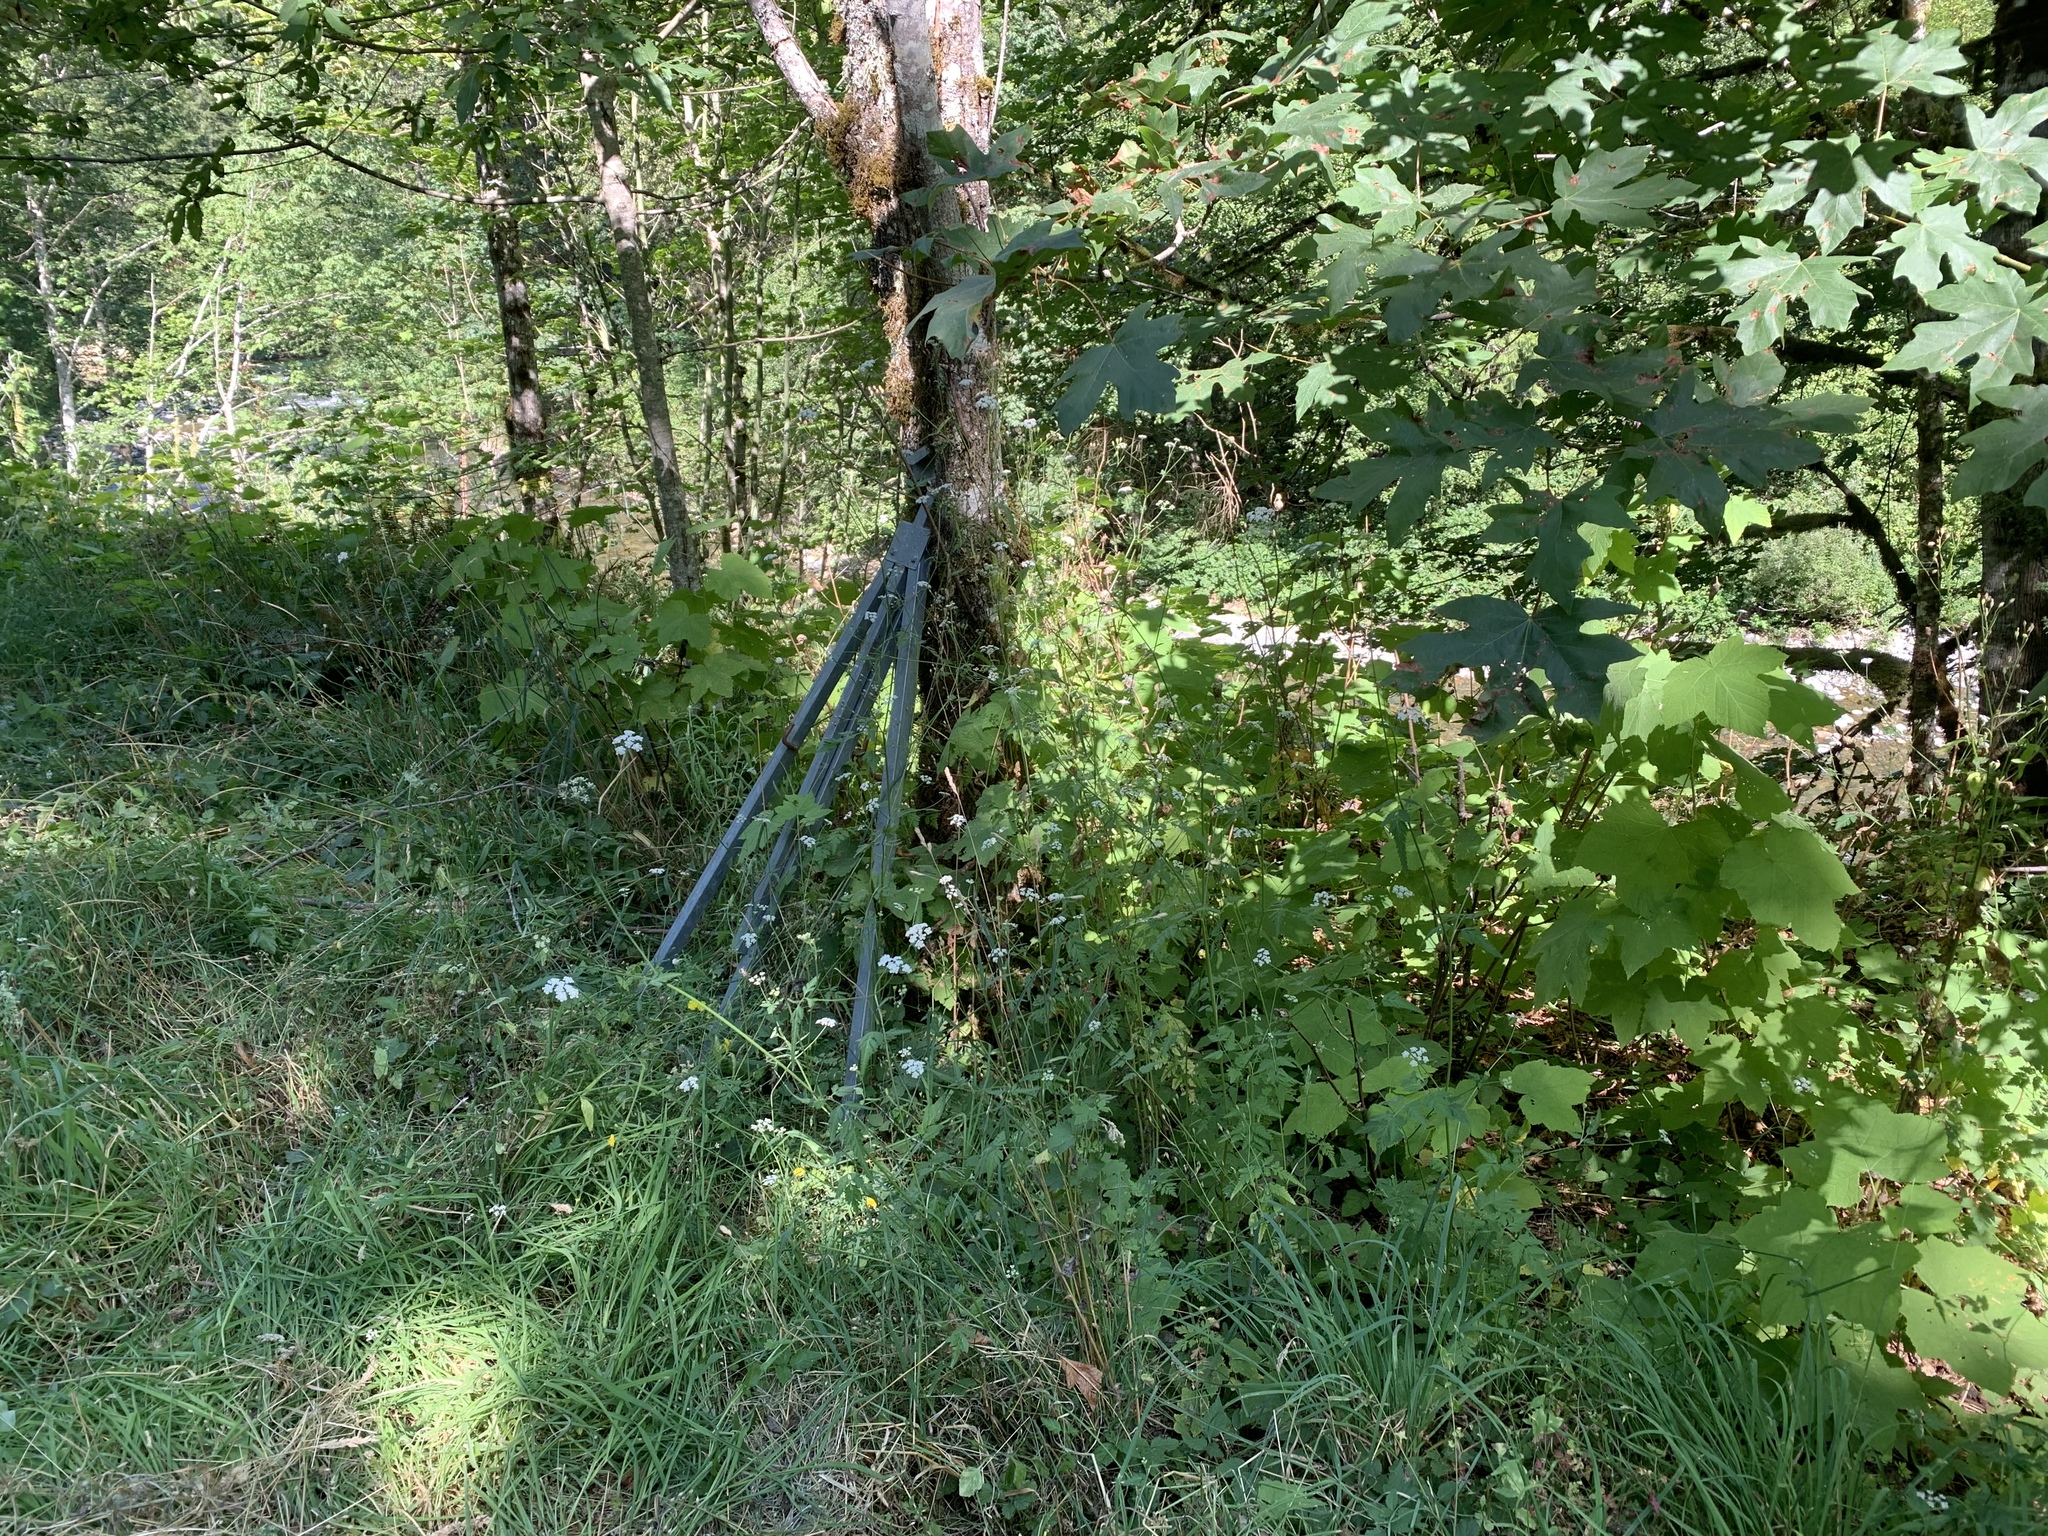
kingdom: Plantae
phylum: Tracheophyta
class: Magnoliopsida
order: Apiales
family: Apiaceae
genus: Torilis
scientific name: Torilis japonica
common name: Upright hedge-parsley
